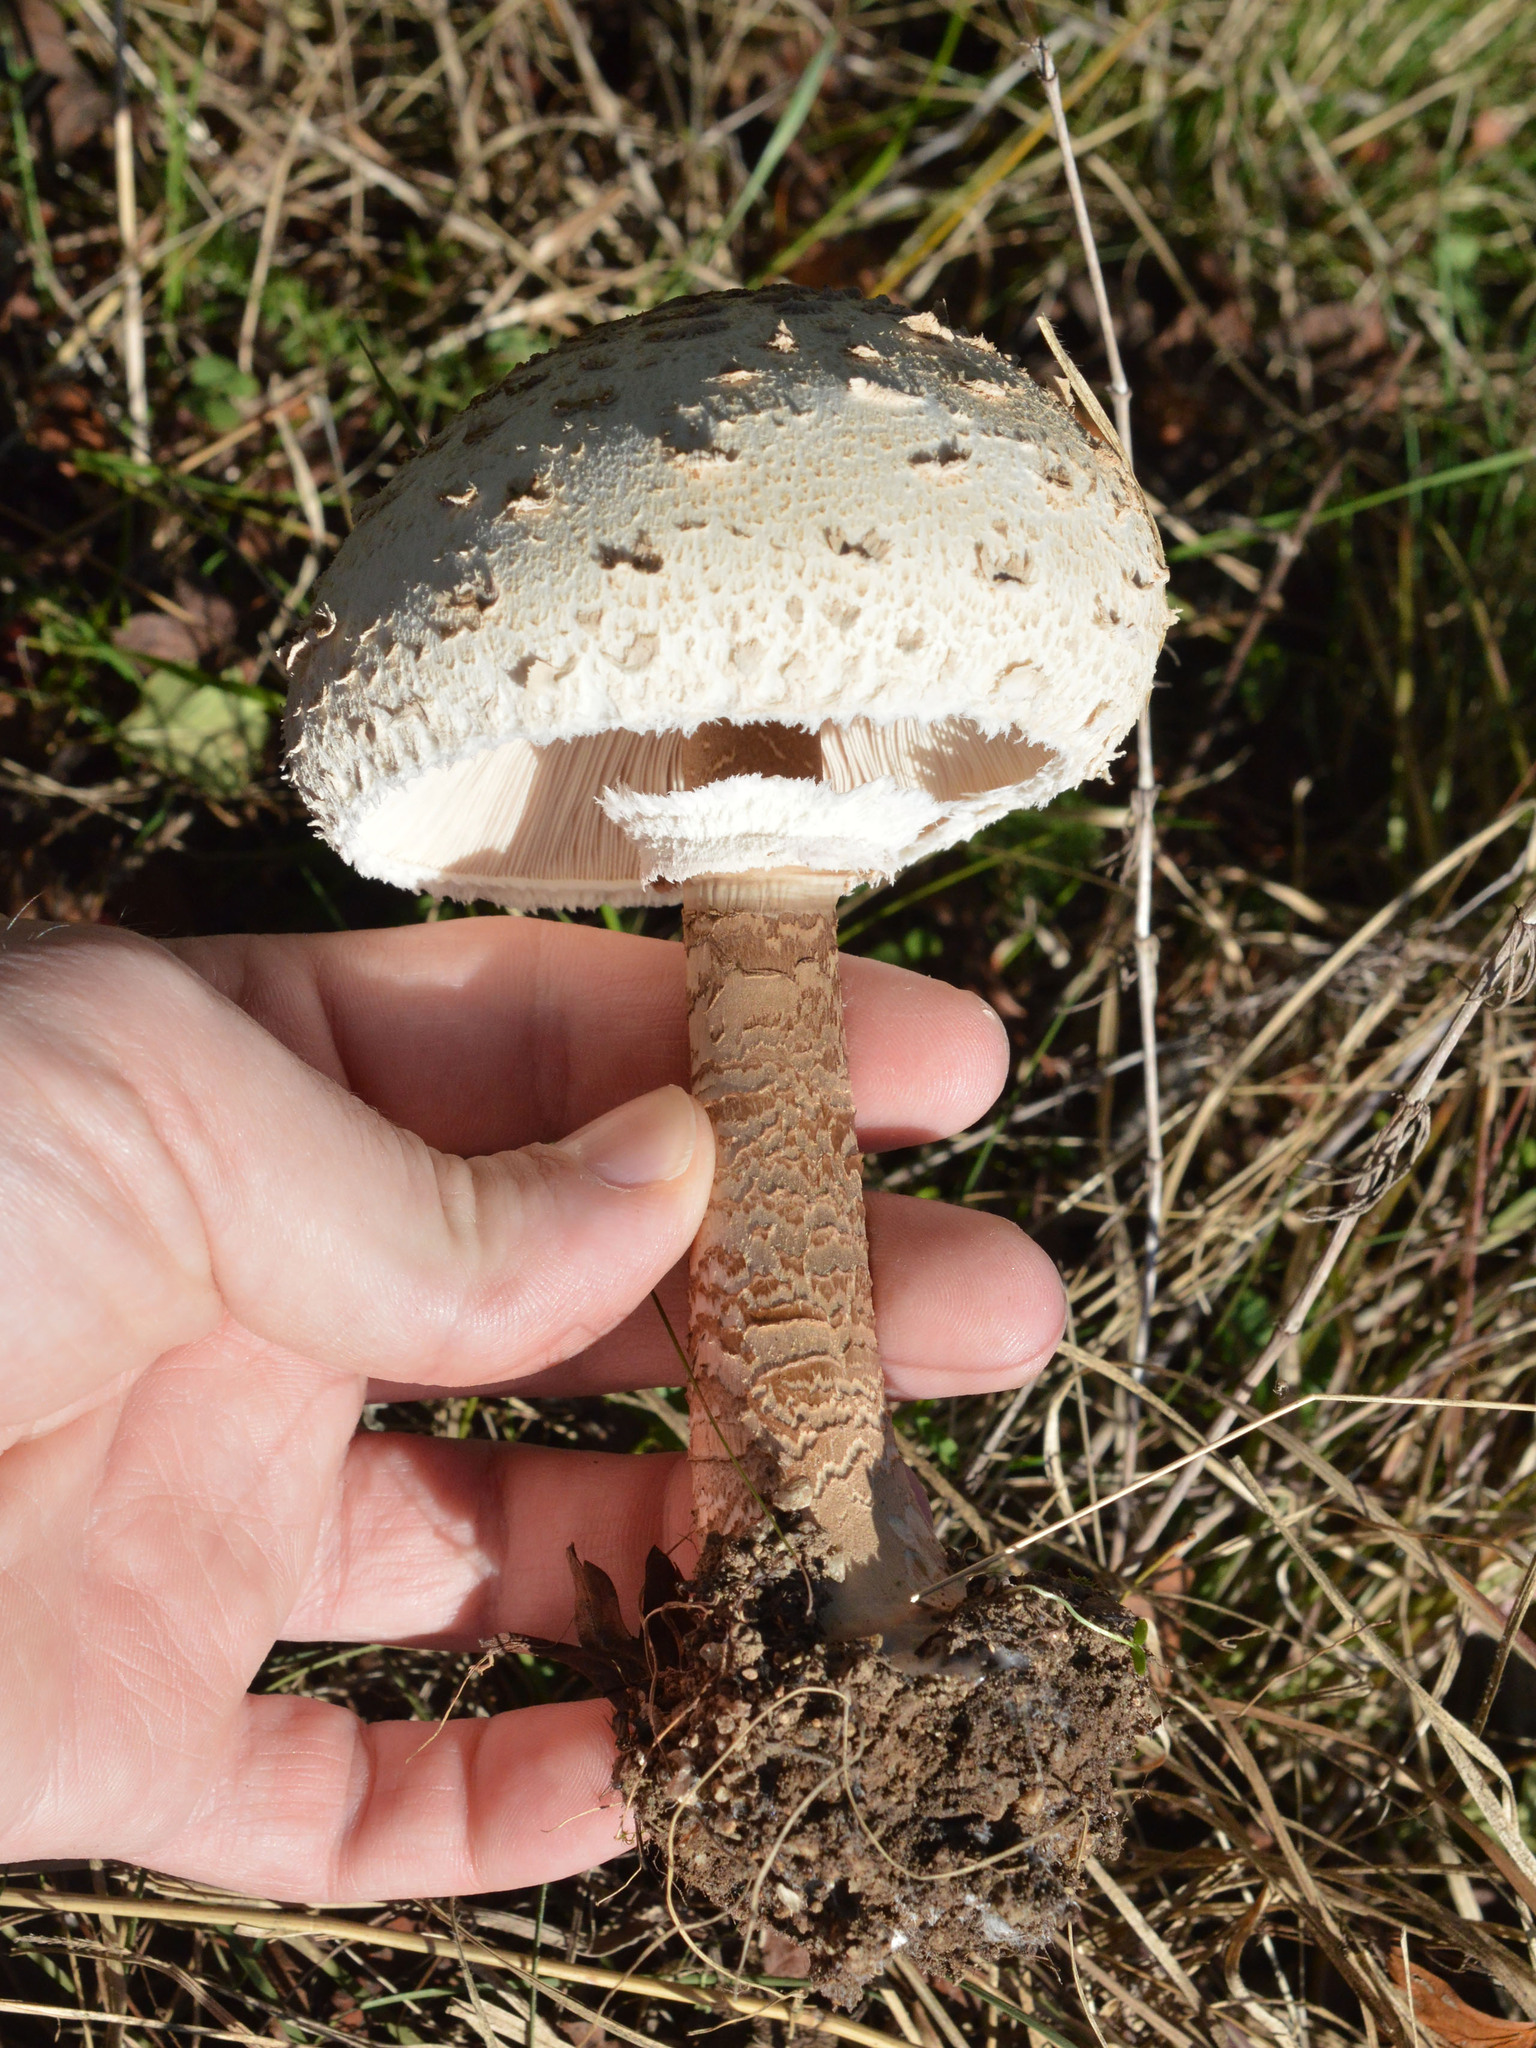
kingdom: Fungi
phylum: Basidiomycota
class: Agaricomycetes
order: Agaricales
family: Agaricaceae
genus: Macrolepiota
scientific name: Macrolepiota procera
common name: Parasol
